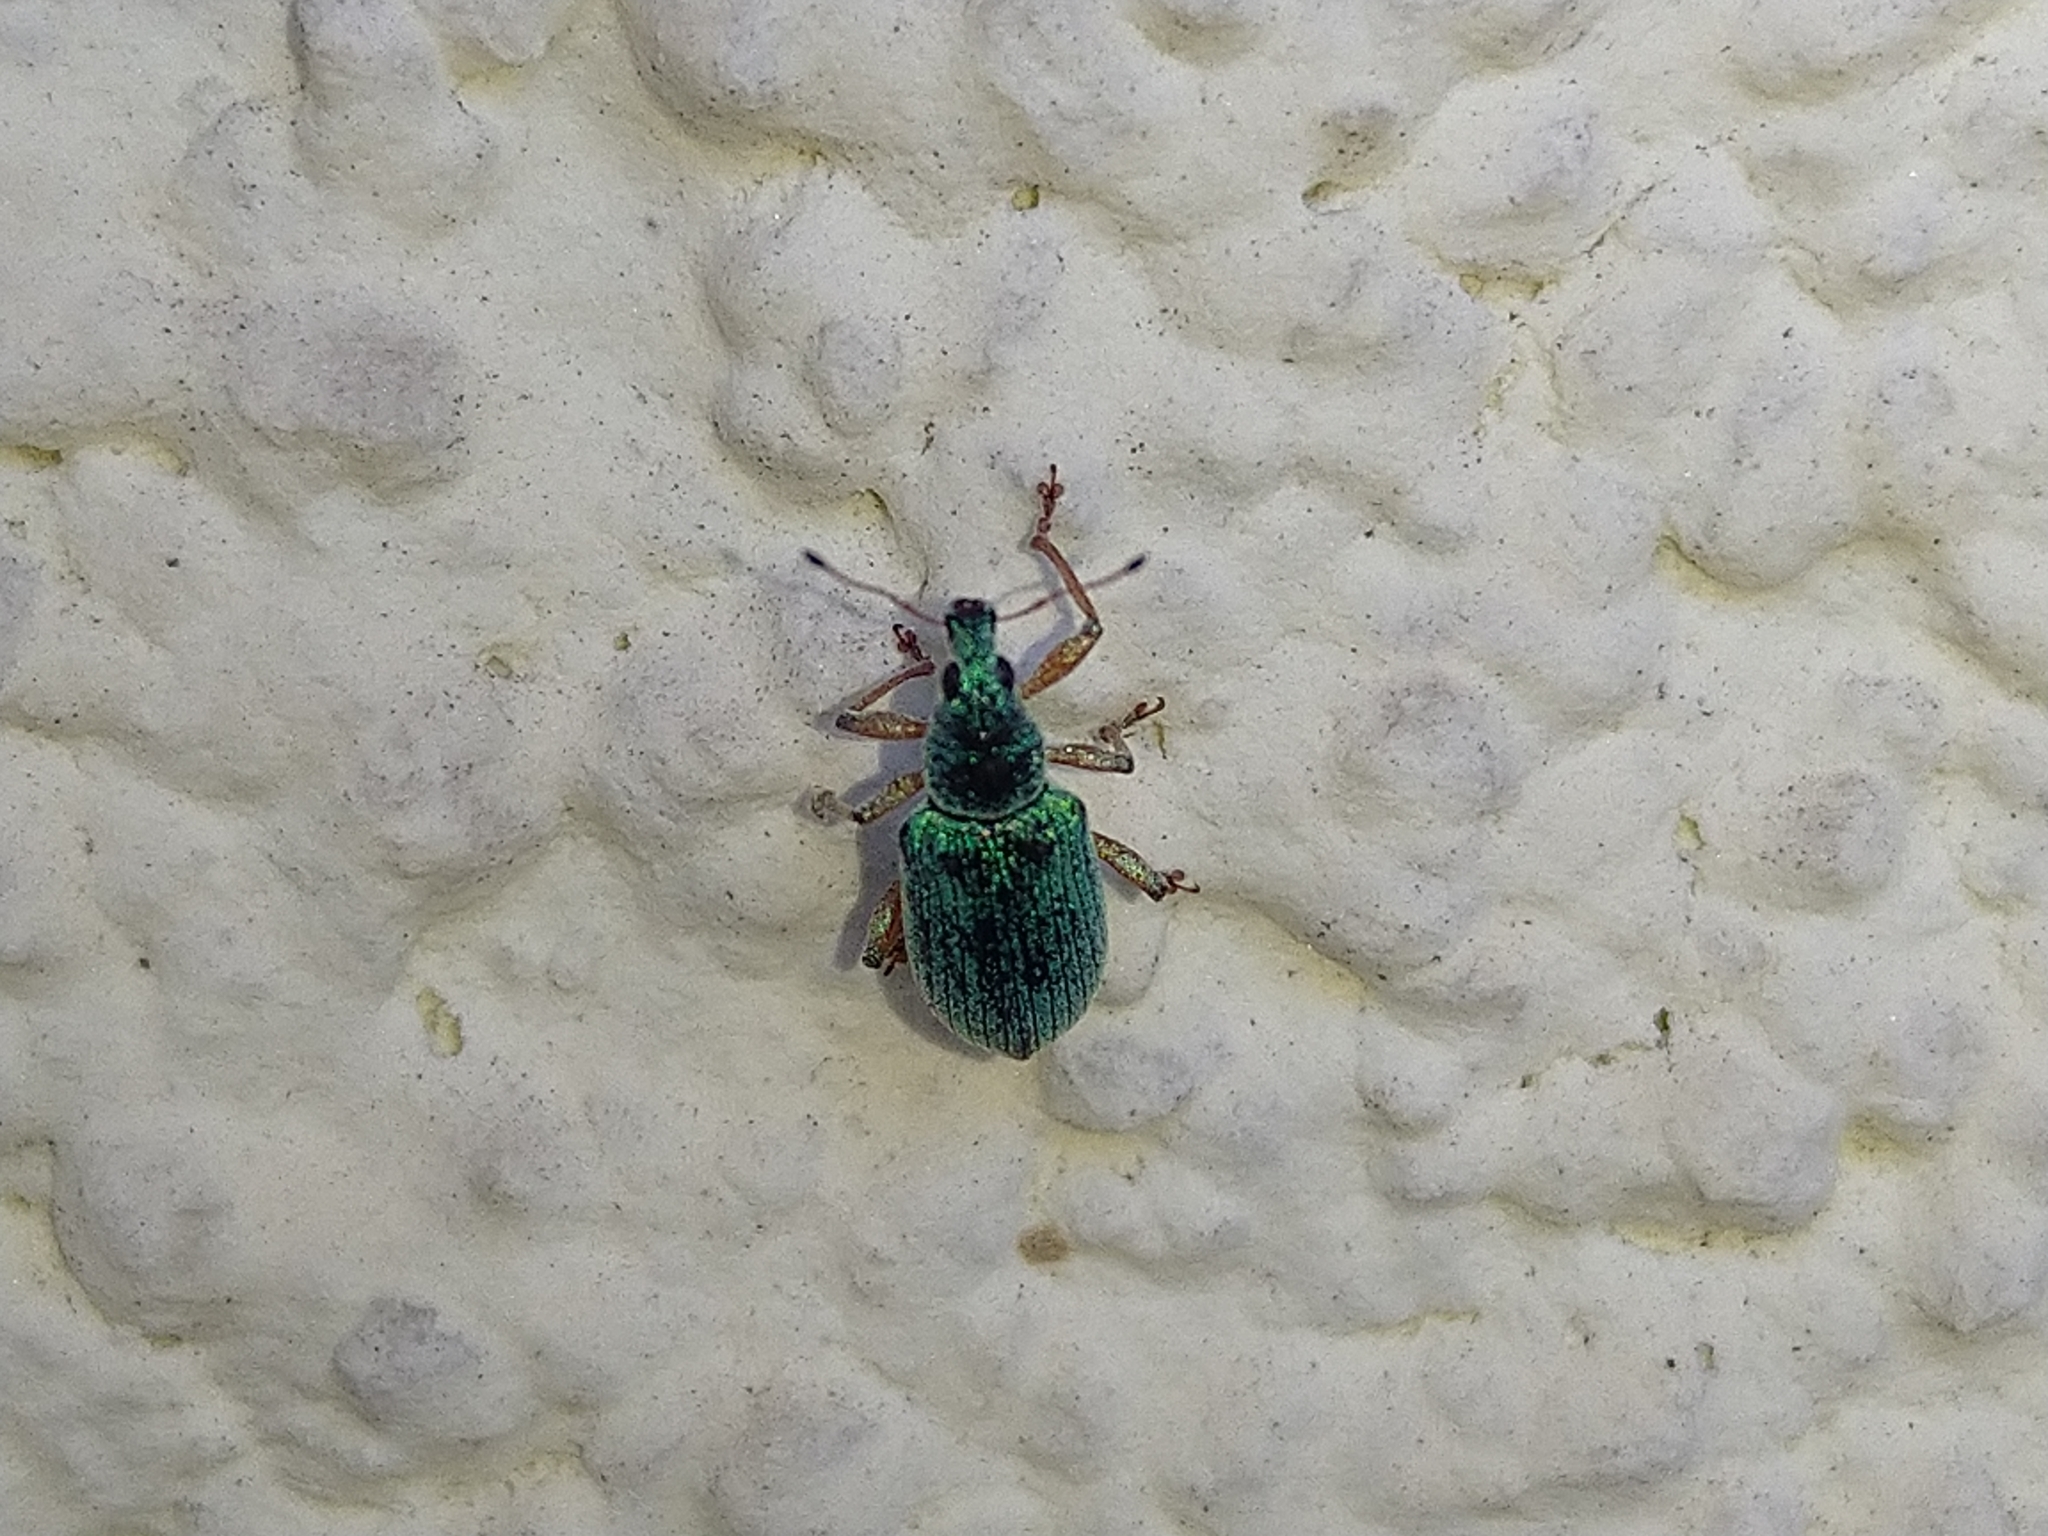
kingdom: Animalia
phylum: Arthropoda
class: Insecta
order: Coleoptera
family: Curculionidae
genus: Polydrusus
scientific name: Polydrusus formosus
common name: Weevil
